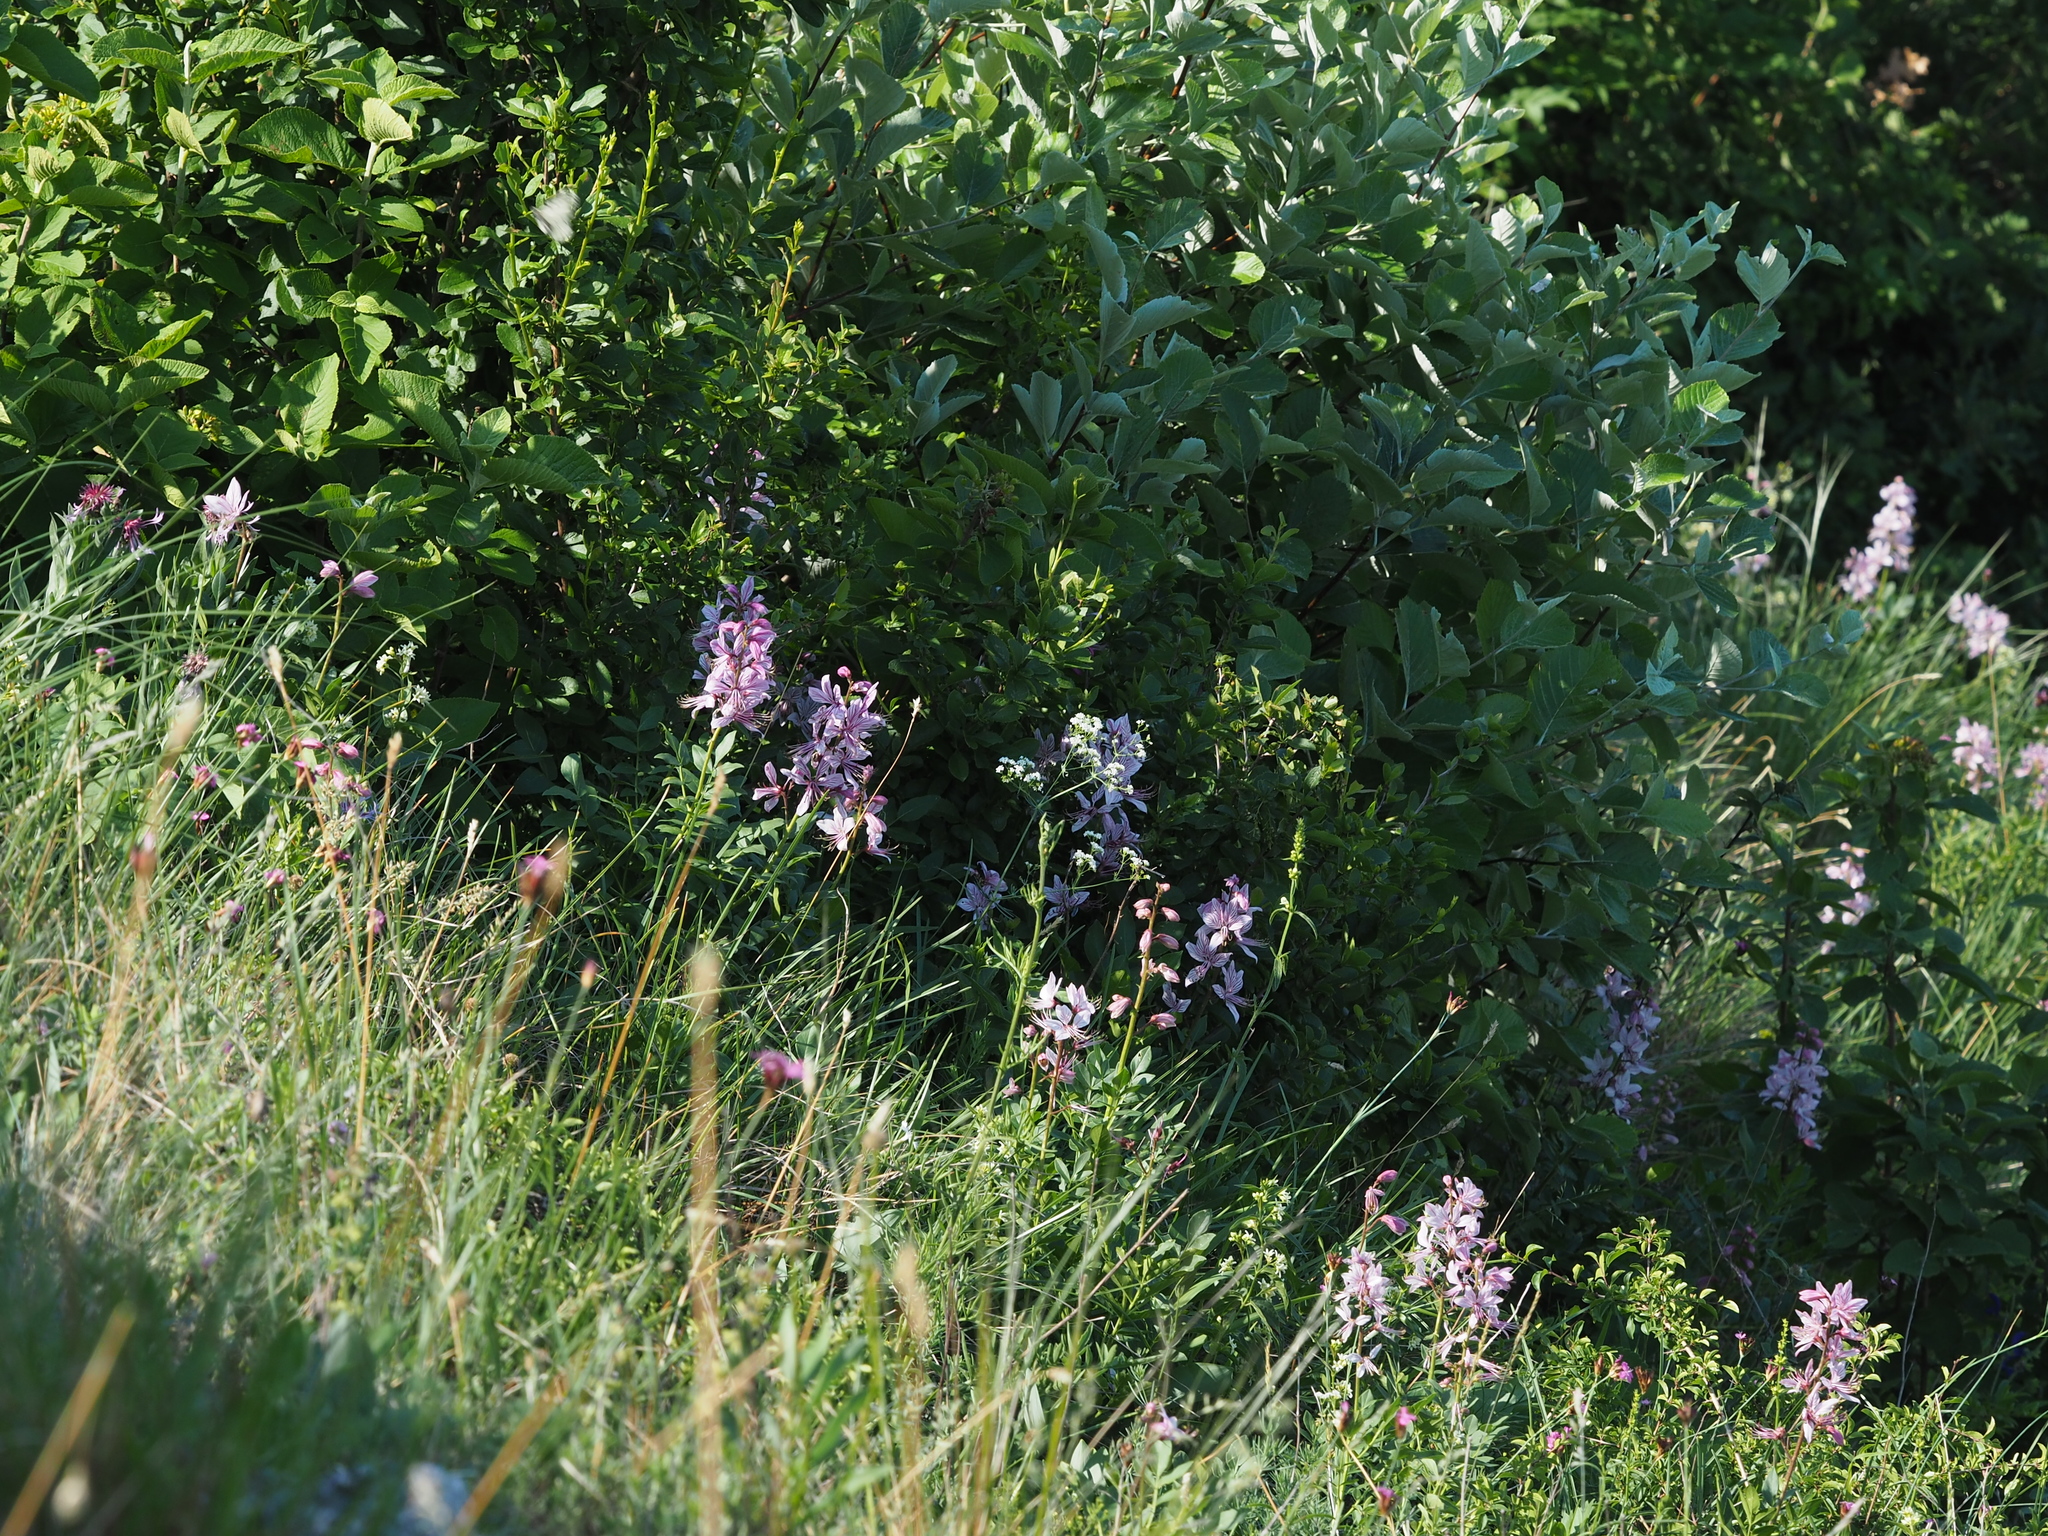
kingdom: Plantae
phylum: Tracheophyta
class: Magnoliopsida
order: Sapindales
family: Rutaceae
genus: Dictamnus
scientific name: Dictamnus albus
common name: Gasplant
